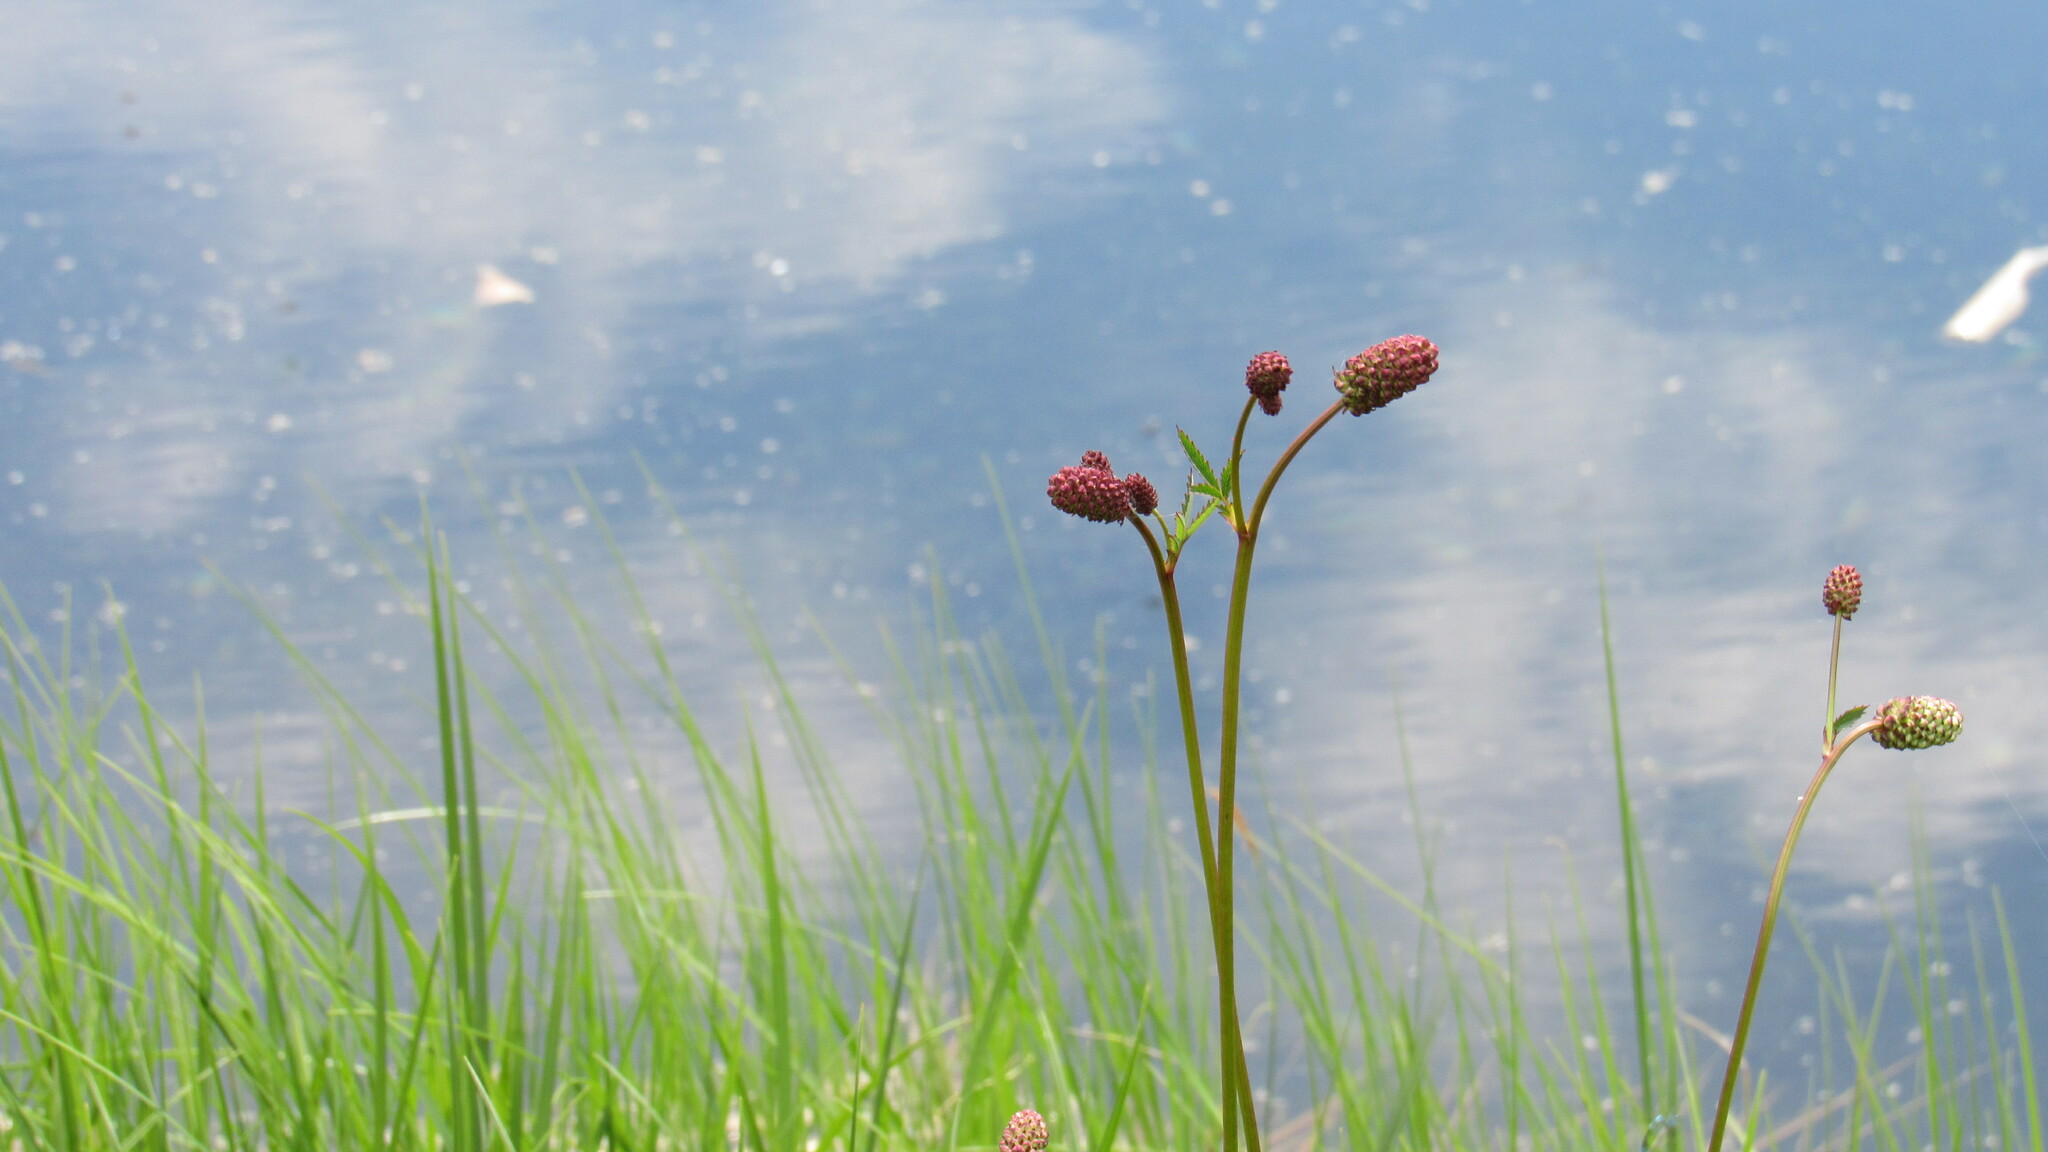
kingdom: Plantae
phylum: Tracheophyta
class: Magnoliopsida
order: Rosales
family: Rosaceae
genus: Poterium
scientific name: Poterium tenuifolium
